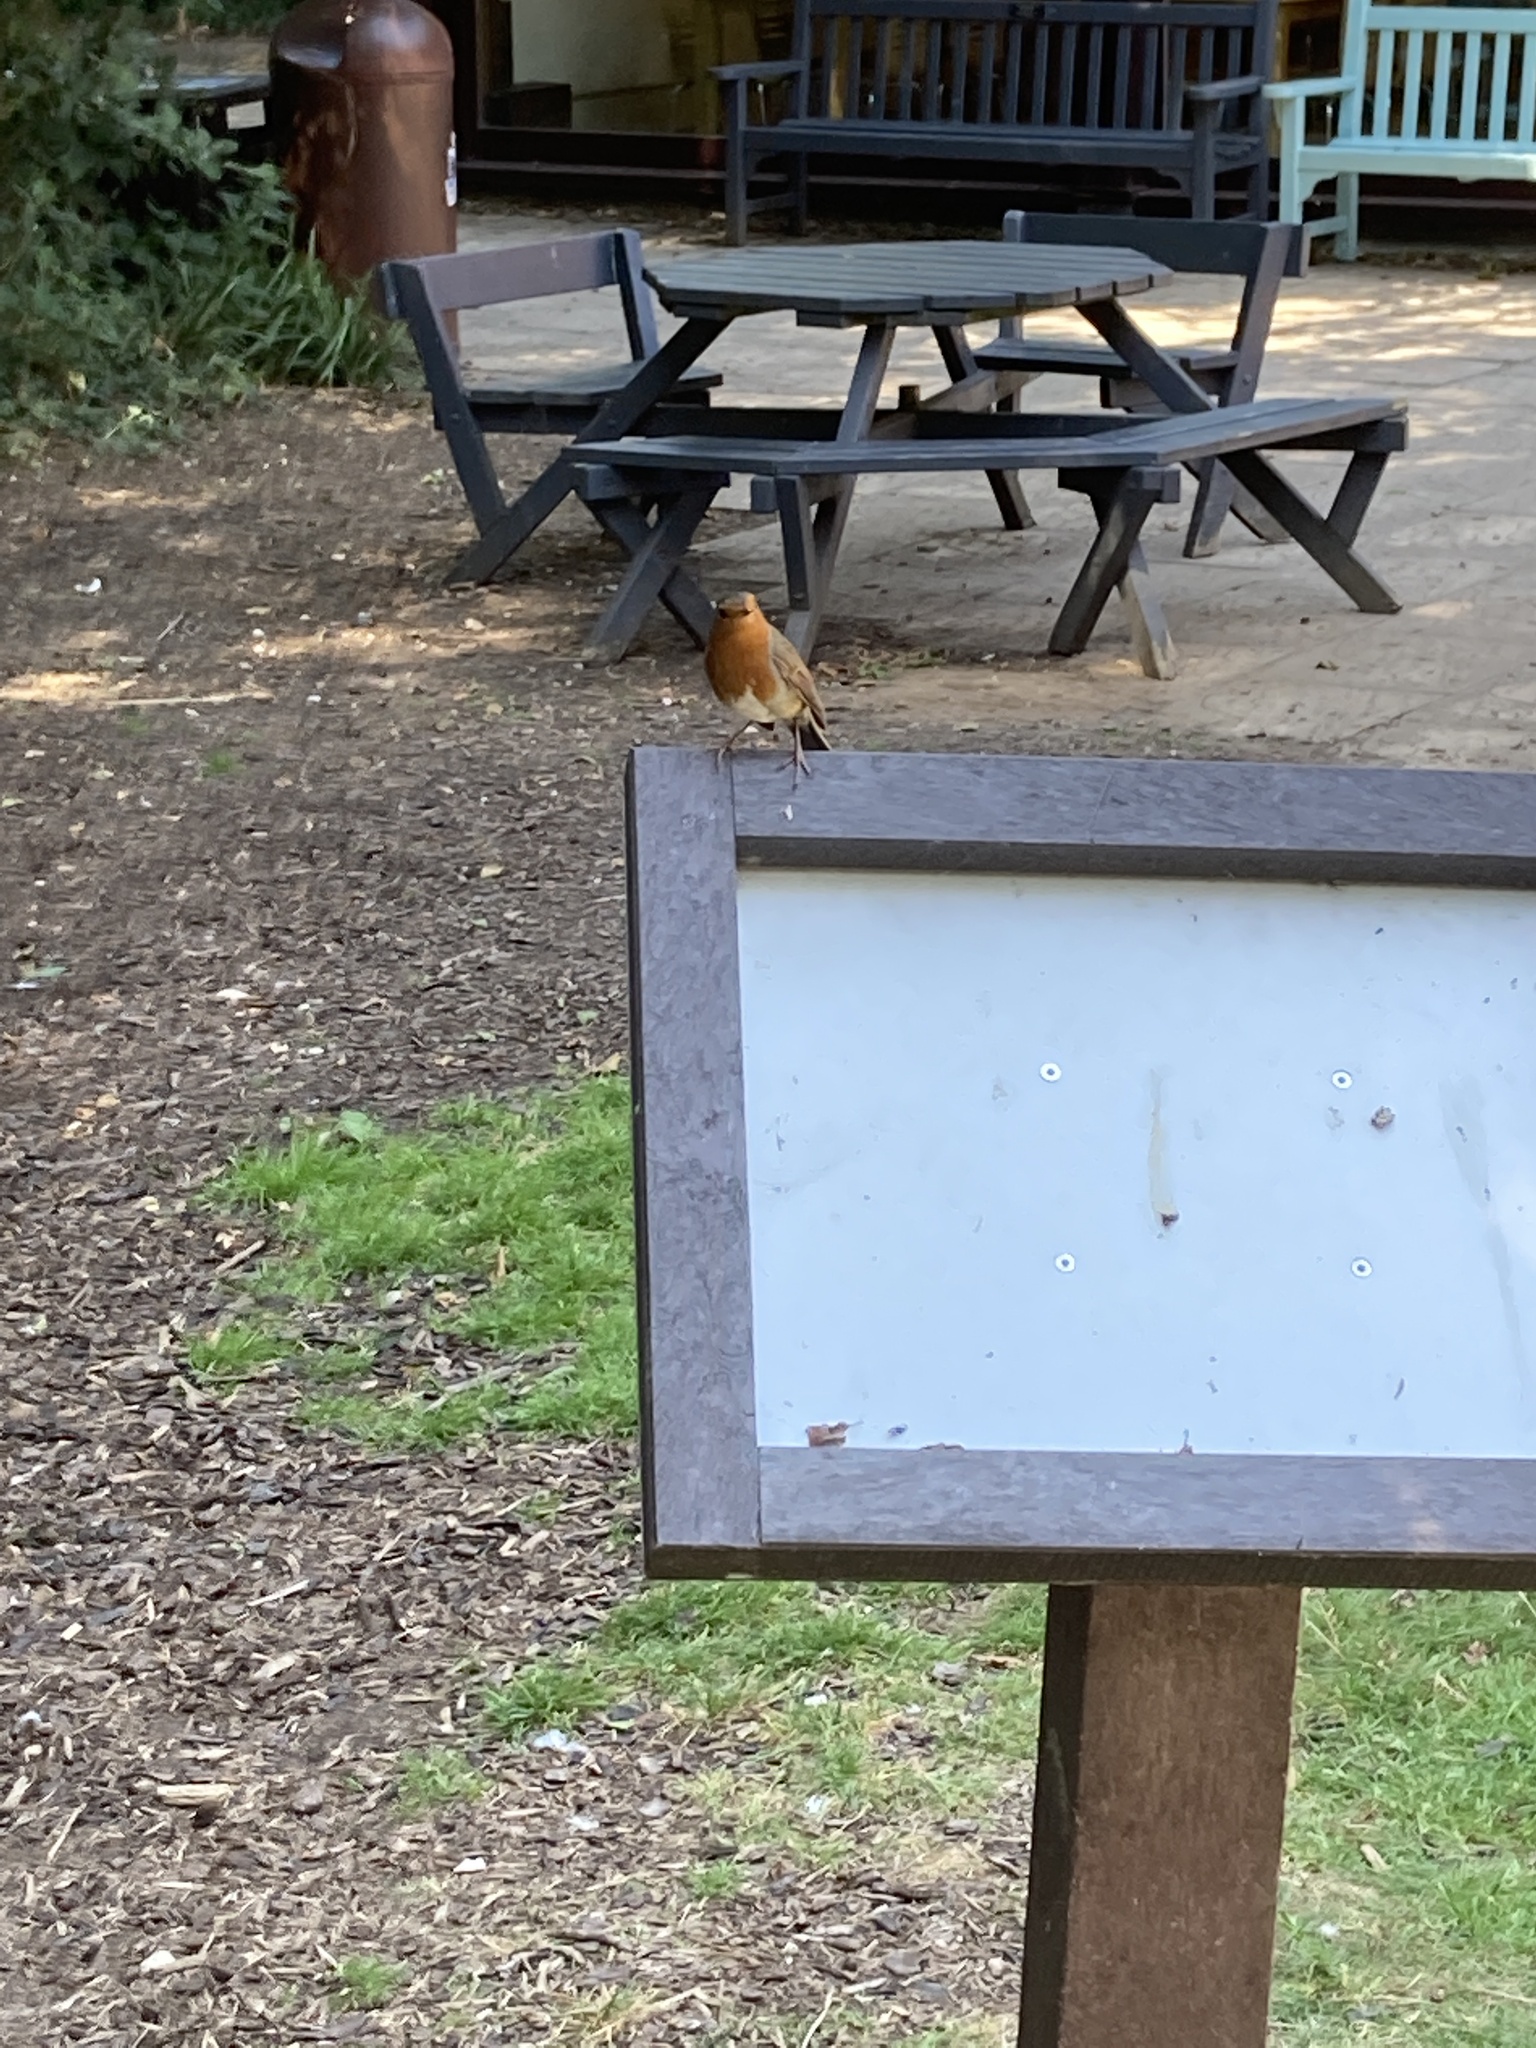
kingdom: Animalia
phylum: Chordata
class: Aves
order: Passeriformes
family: Muscicapidae
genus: Erithacus
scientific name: Erithacus rubecula
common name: European robin
